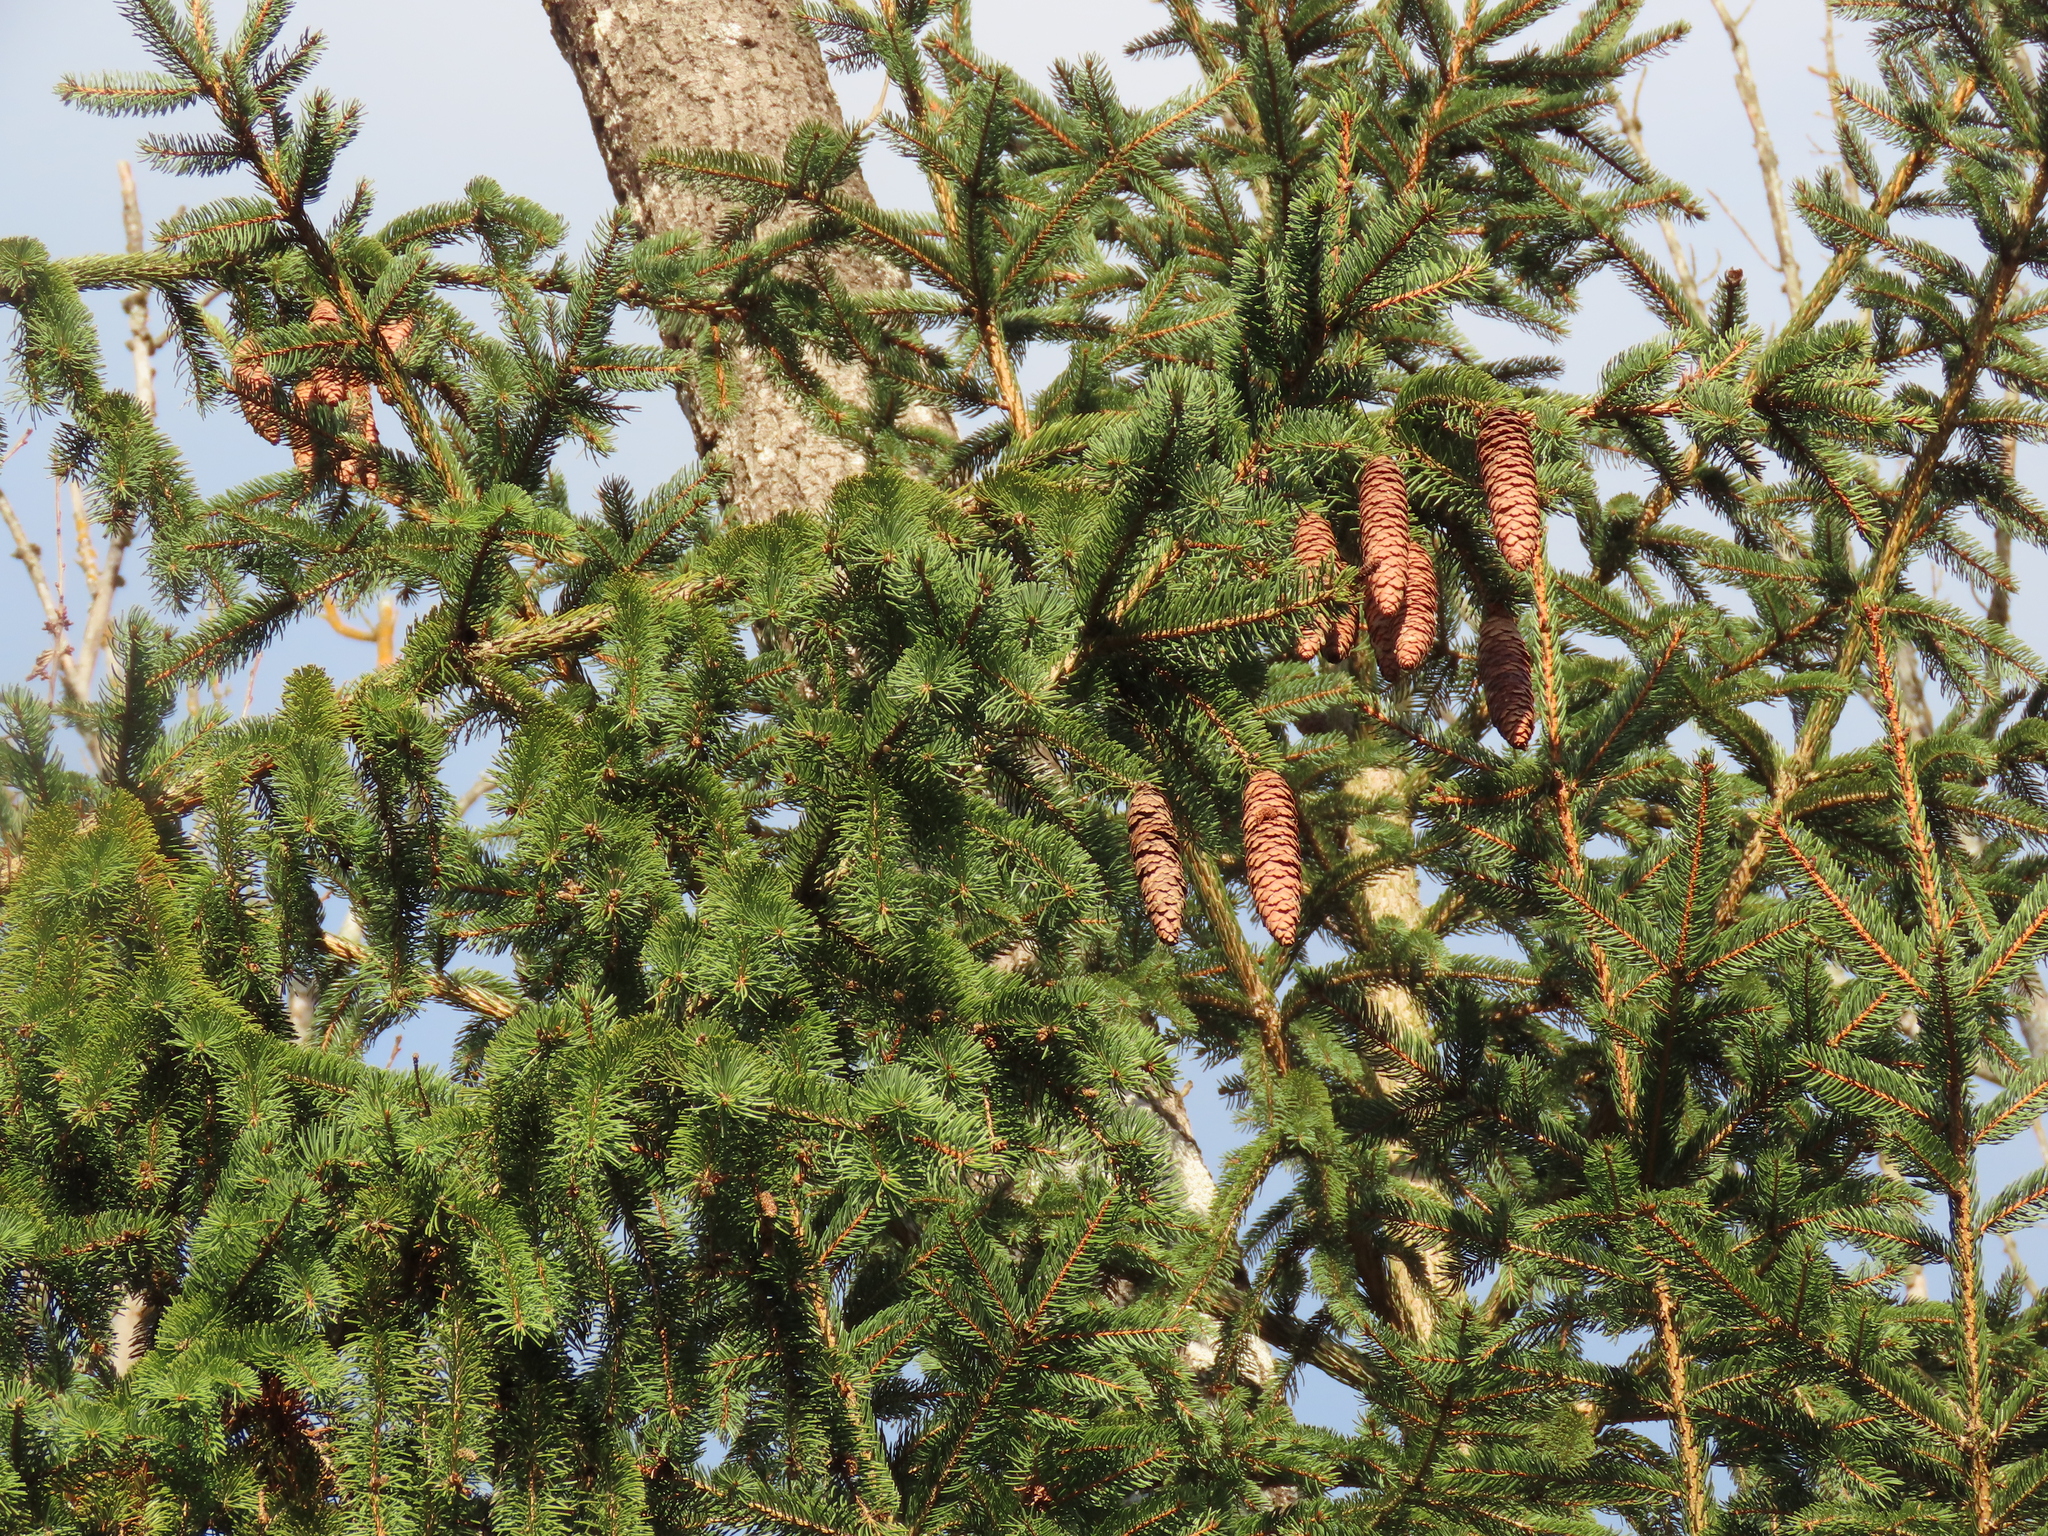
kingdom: Plantae
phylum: Tracheophyta
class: Pinopsida
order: Pinales
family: Pinaceae
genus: Picea
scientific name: Picea abies
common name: Norway spruce
